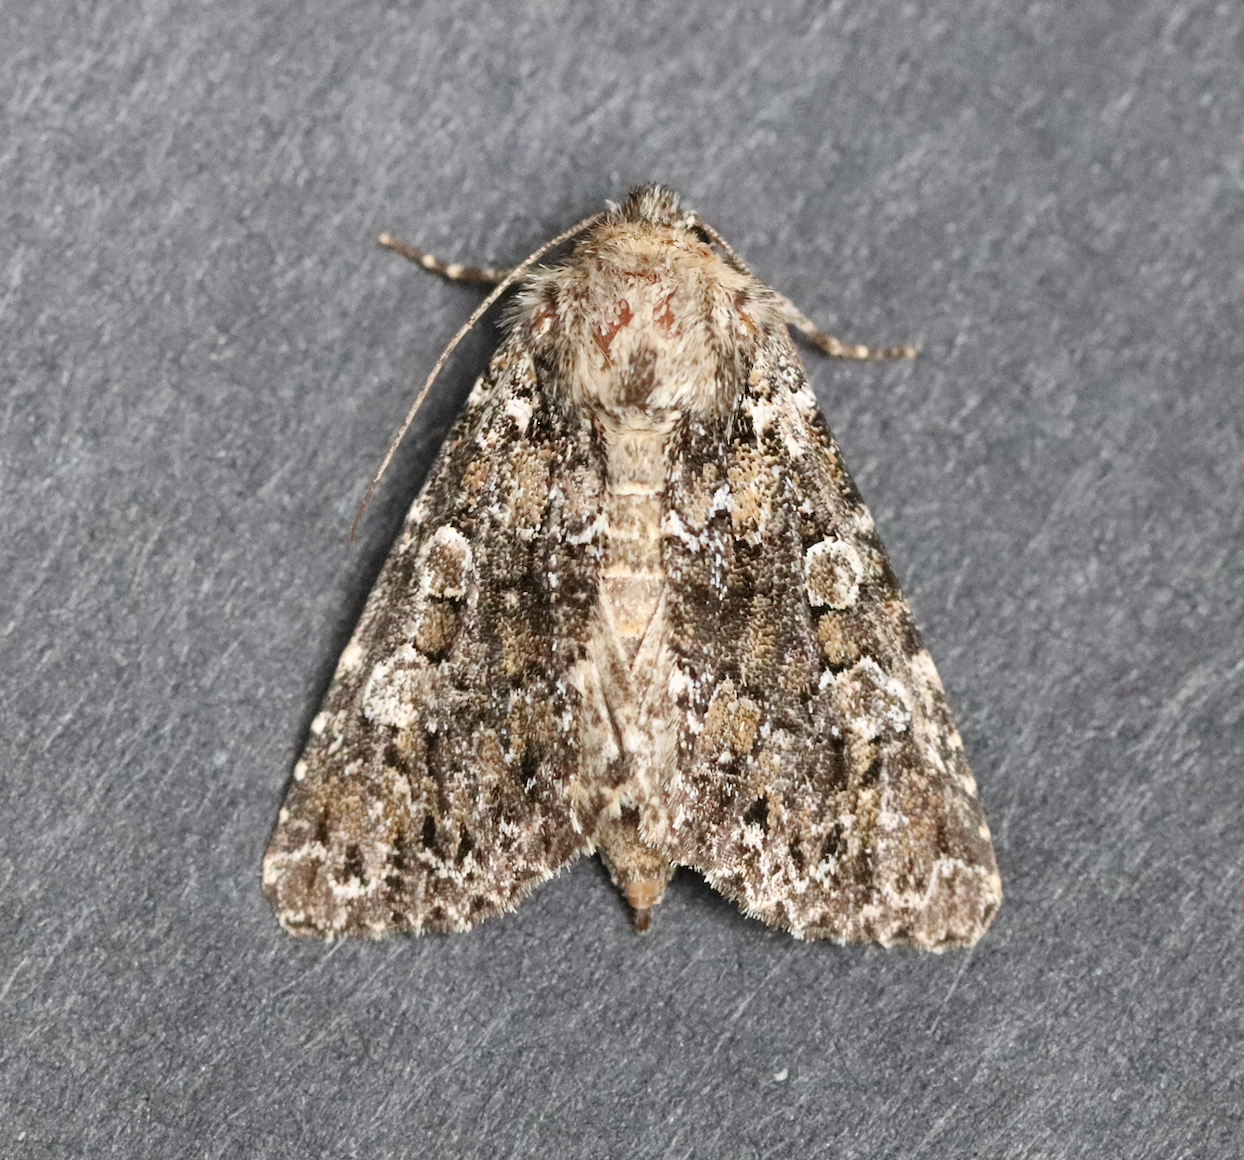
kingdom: Animalia
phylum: Arthropoda
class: Insecta
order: Lepidoptera
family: Noctuidae
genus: Hadena
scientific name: Hadena magnolii
